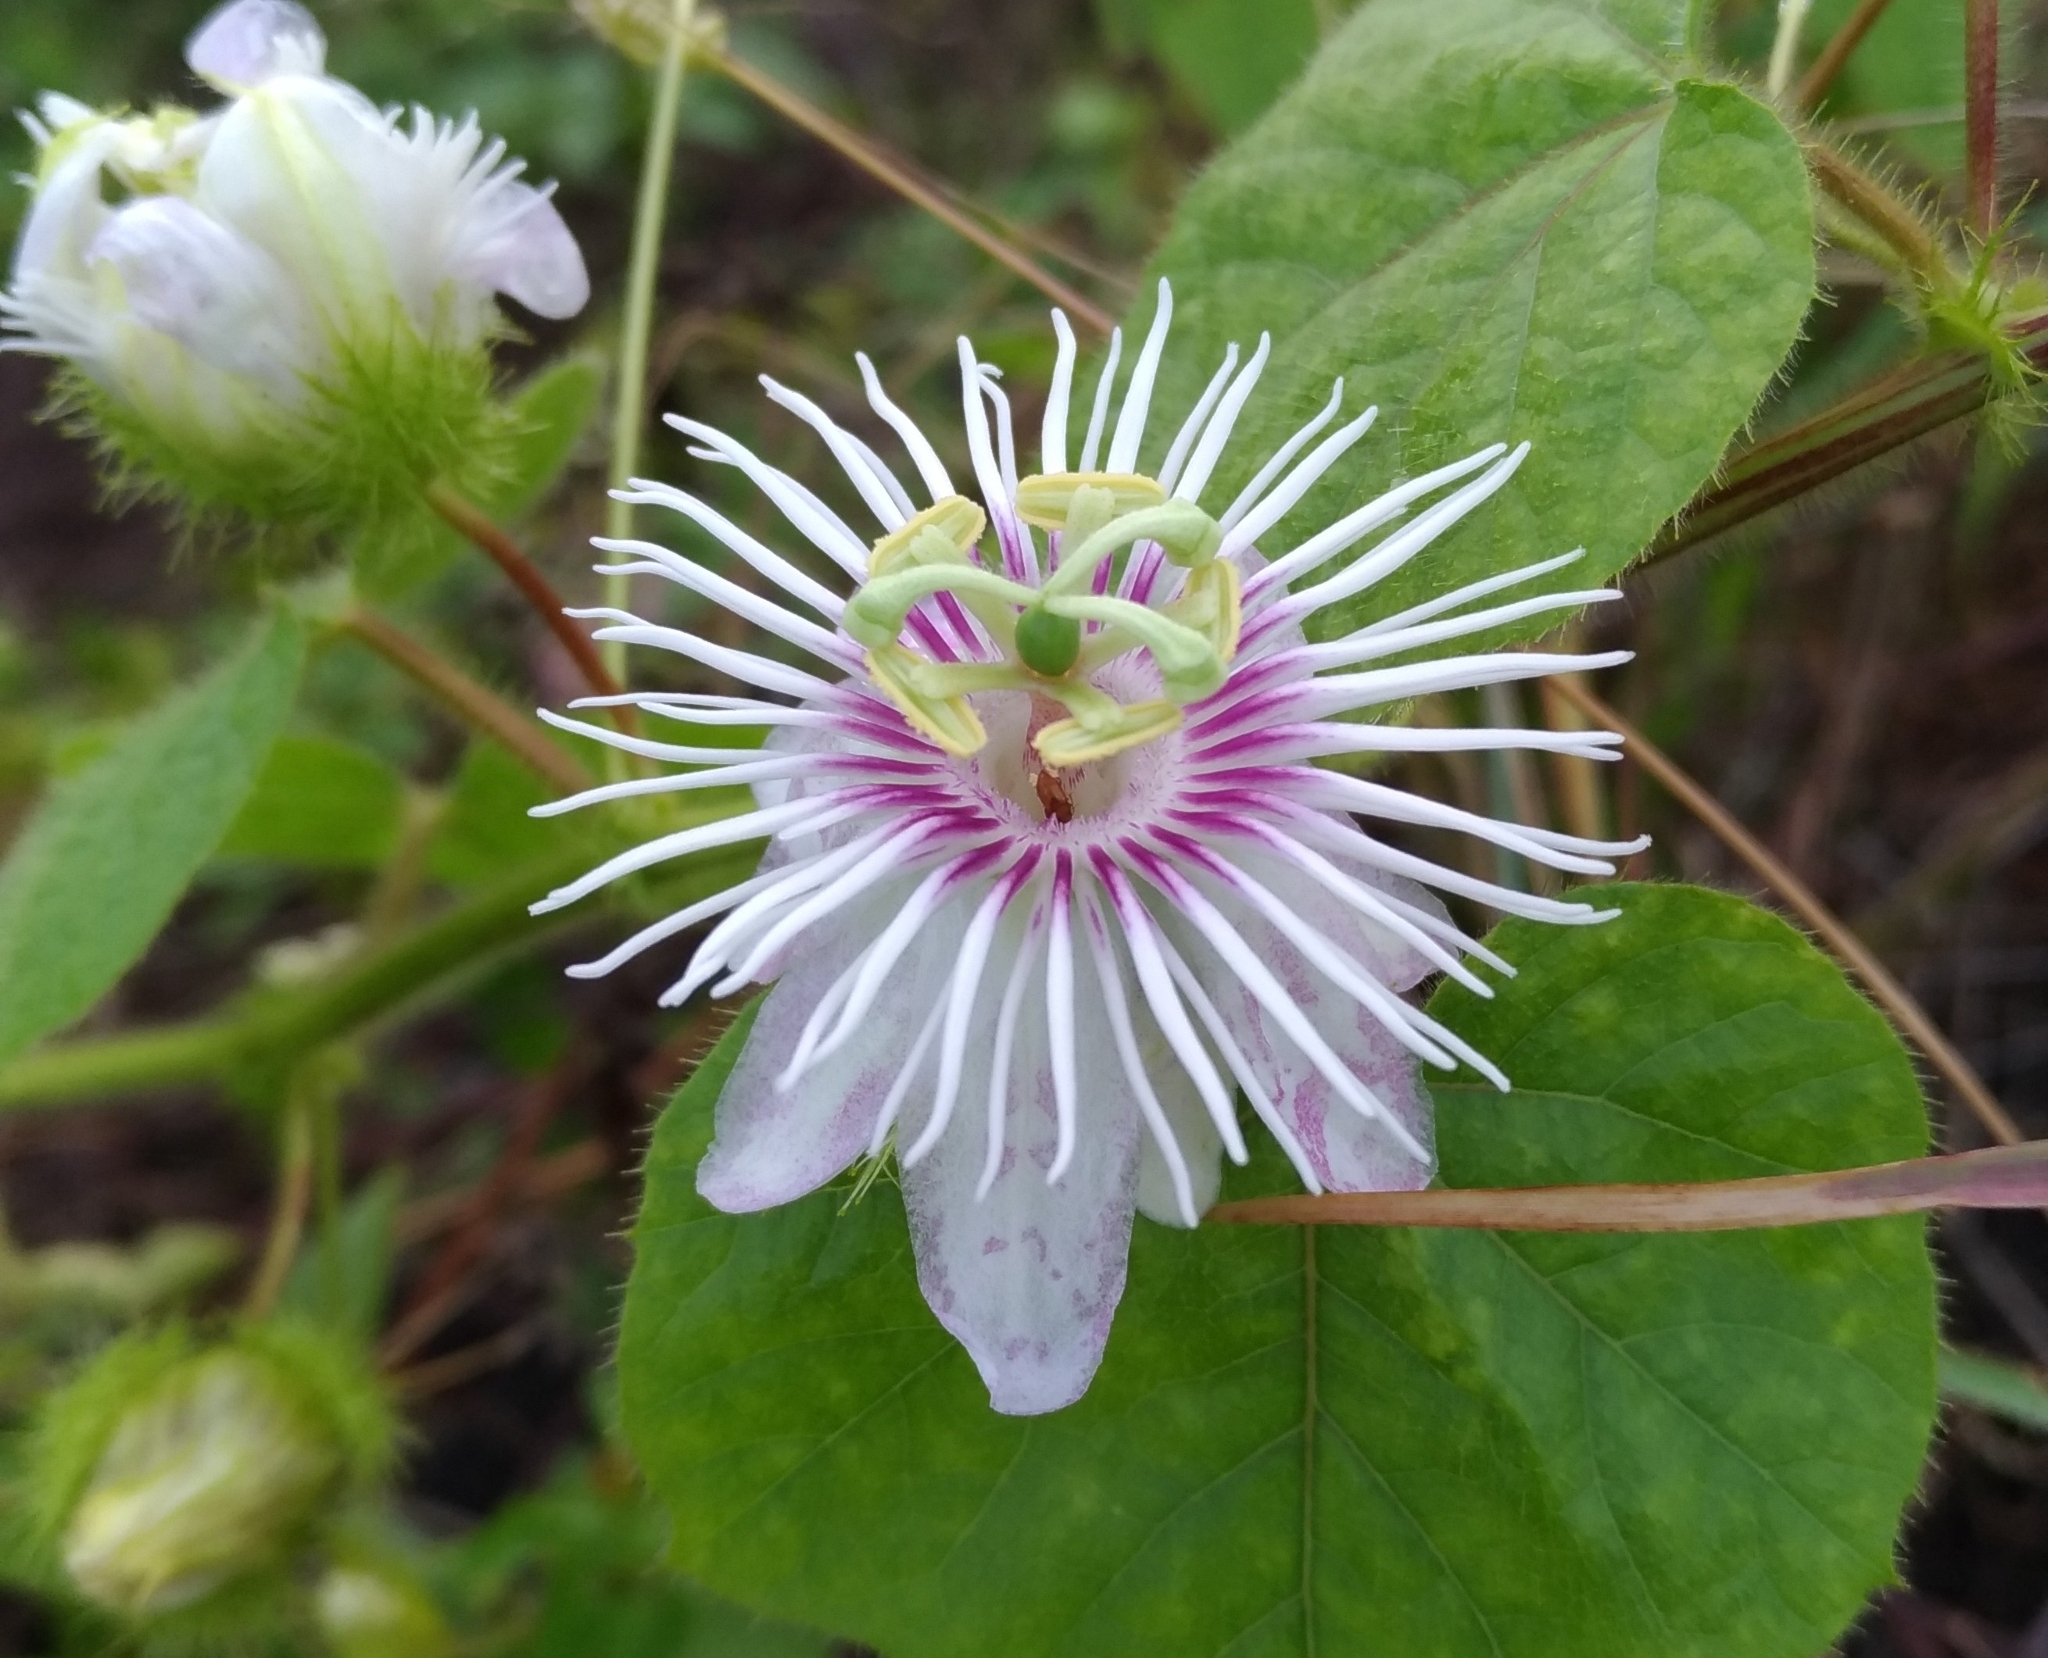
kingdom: Plantae
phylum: Tracheophyta
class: Magnoliopsida
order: Malpighiales
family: Passifloraceae
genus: Passiflora
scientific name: Passiflora vesicaria
